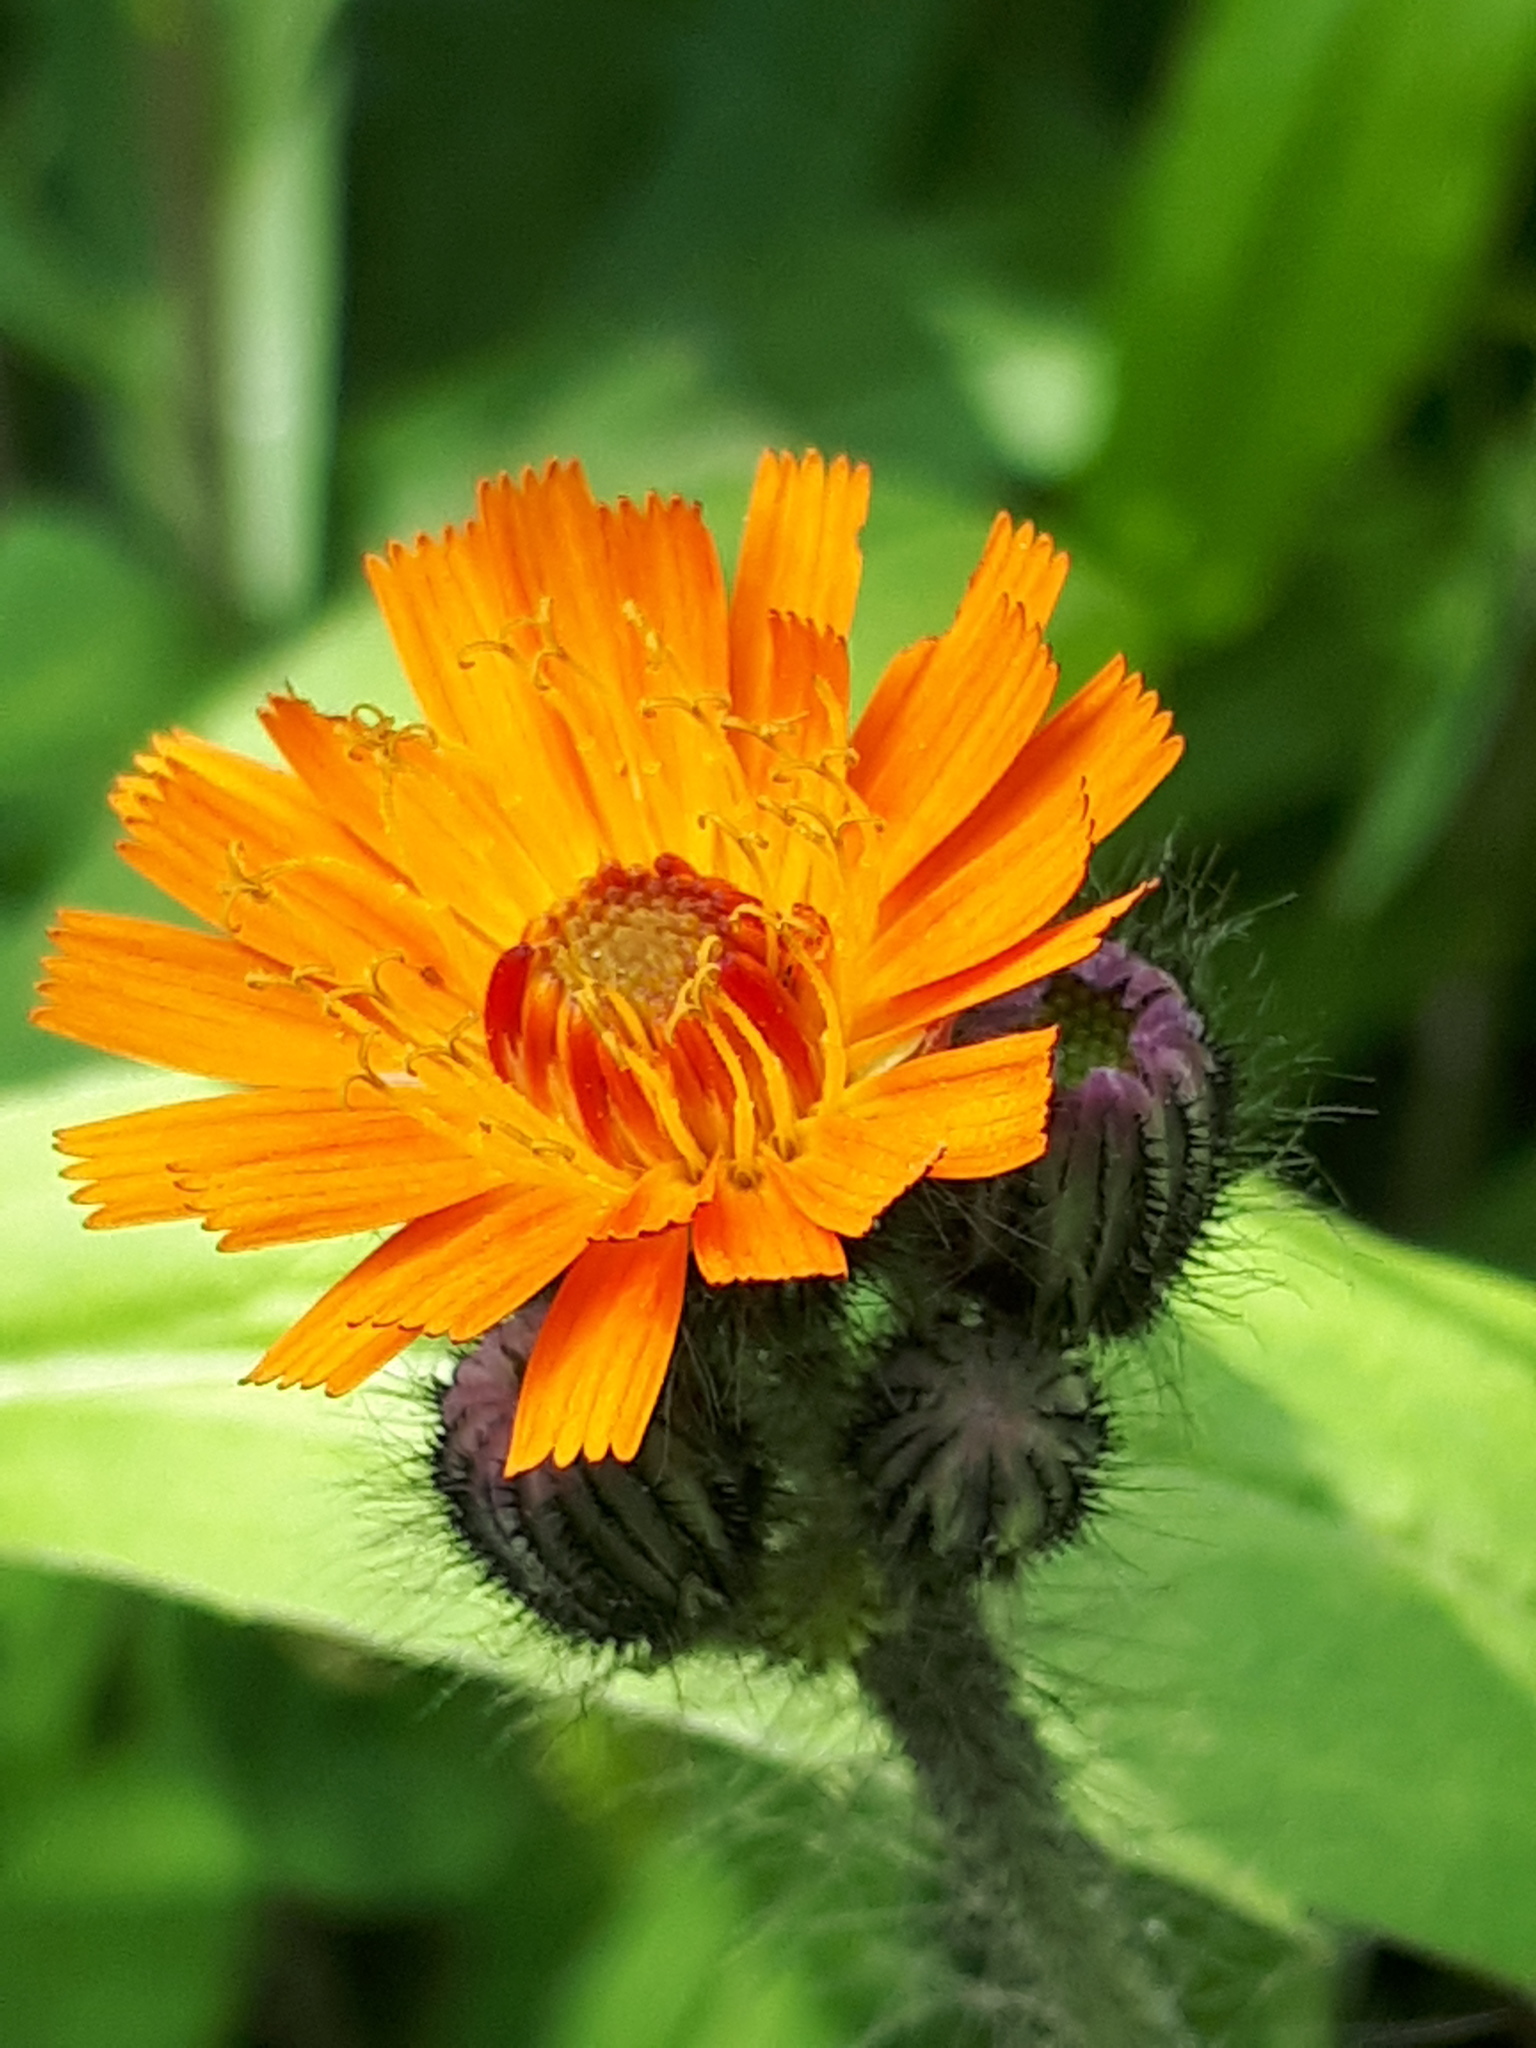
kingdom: Plantae
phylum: Tracheophyta
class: Magnoliopsida
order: Asterales
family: Asteraceae
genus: Pilosella
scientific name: Pilosella aurantiaca
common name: Fox-and-cubs
